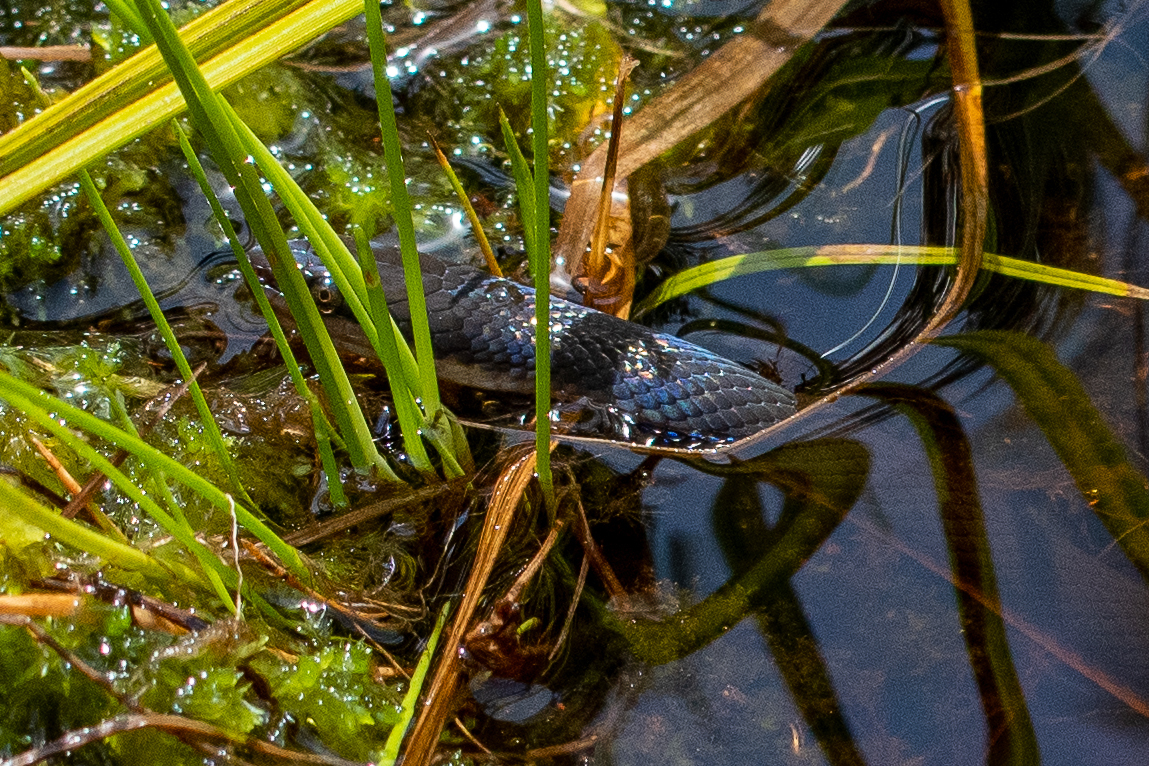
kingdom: Animalia
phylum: Chordata
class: Squamata
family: Lamprophiidae
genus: Lycodonomorphus
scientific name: Lycodonomorphus rufulus
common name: Brown water snake
